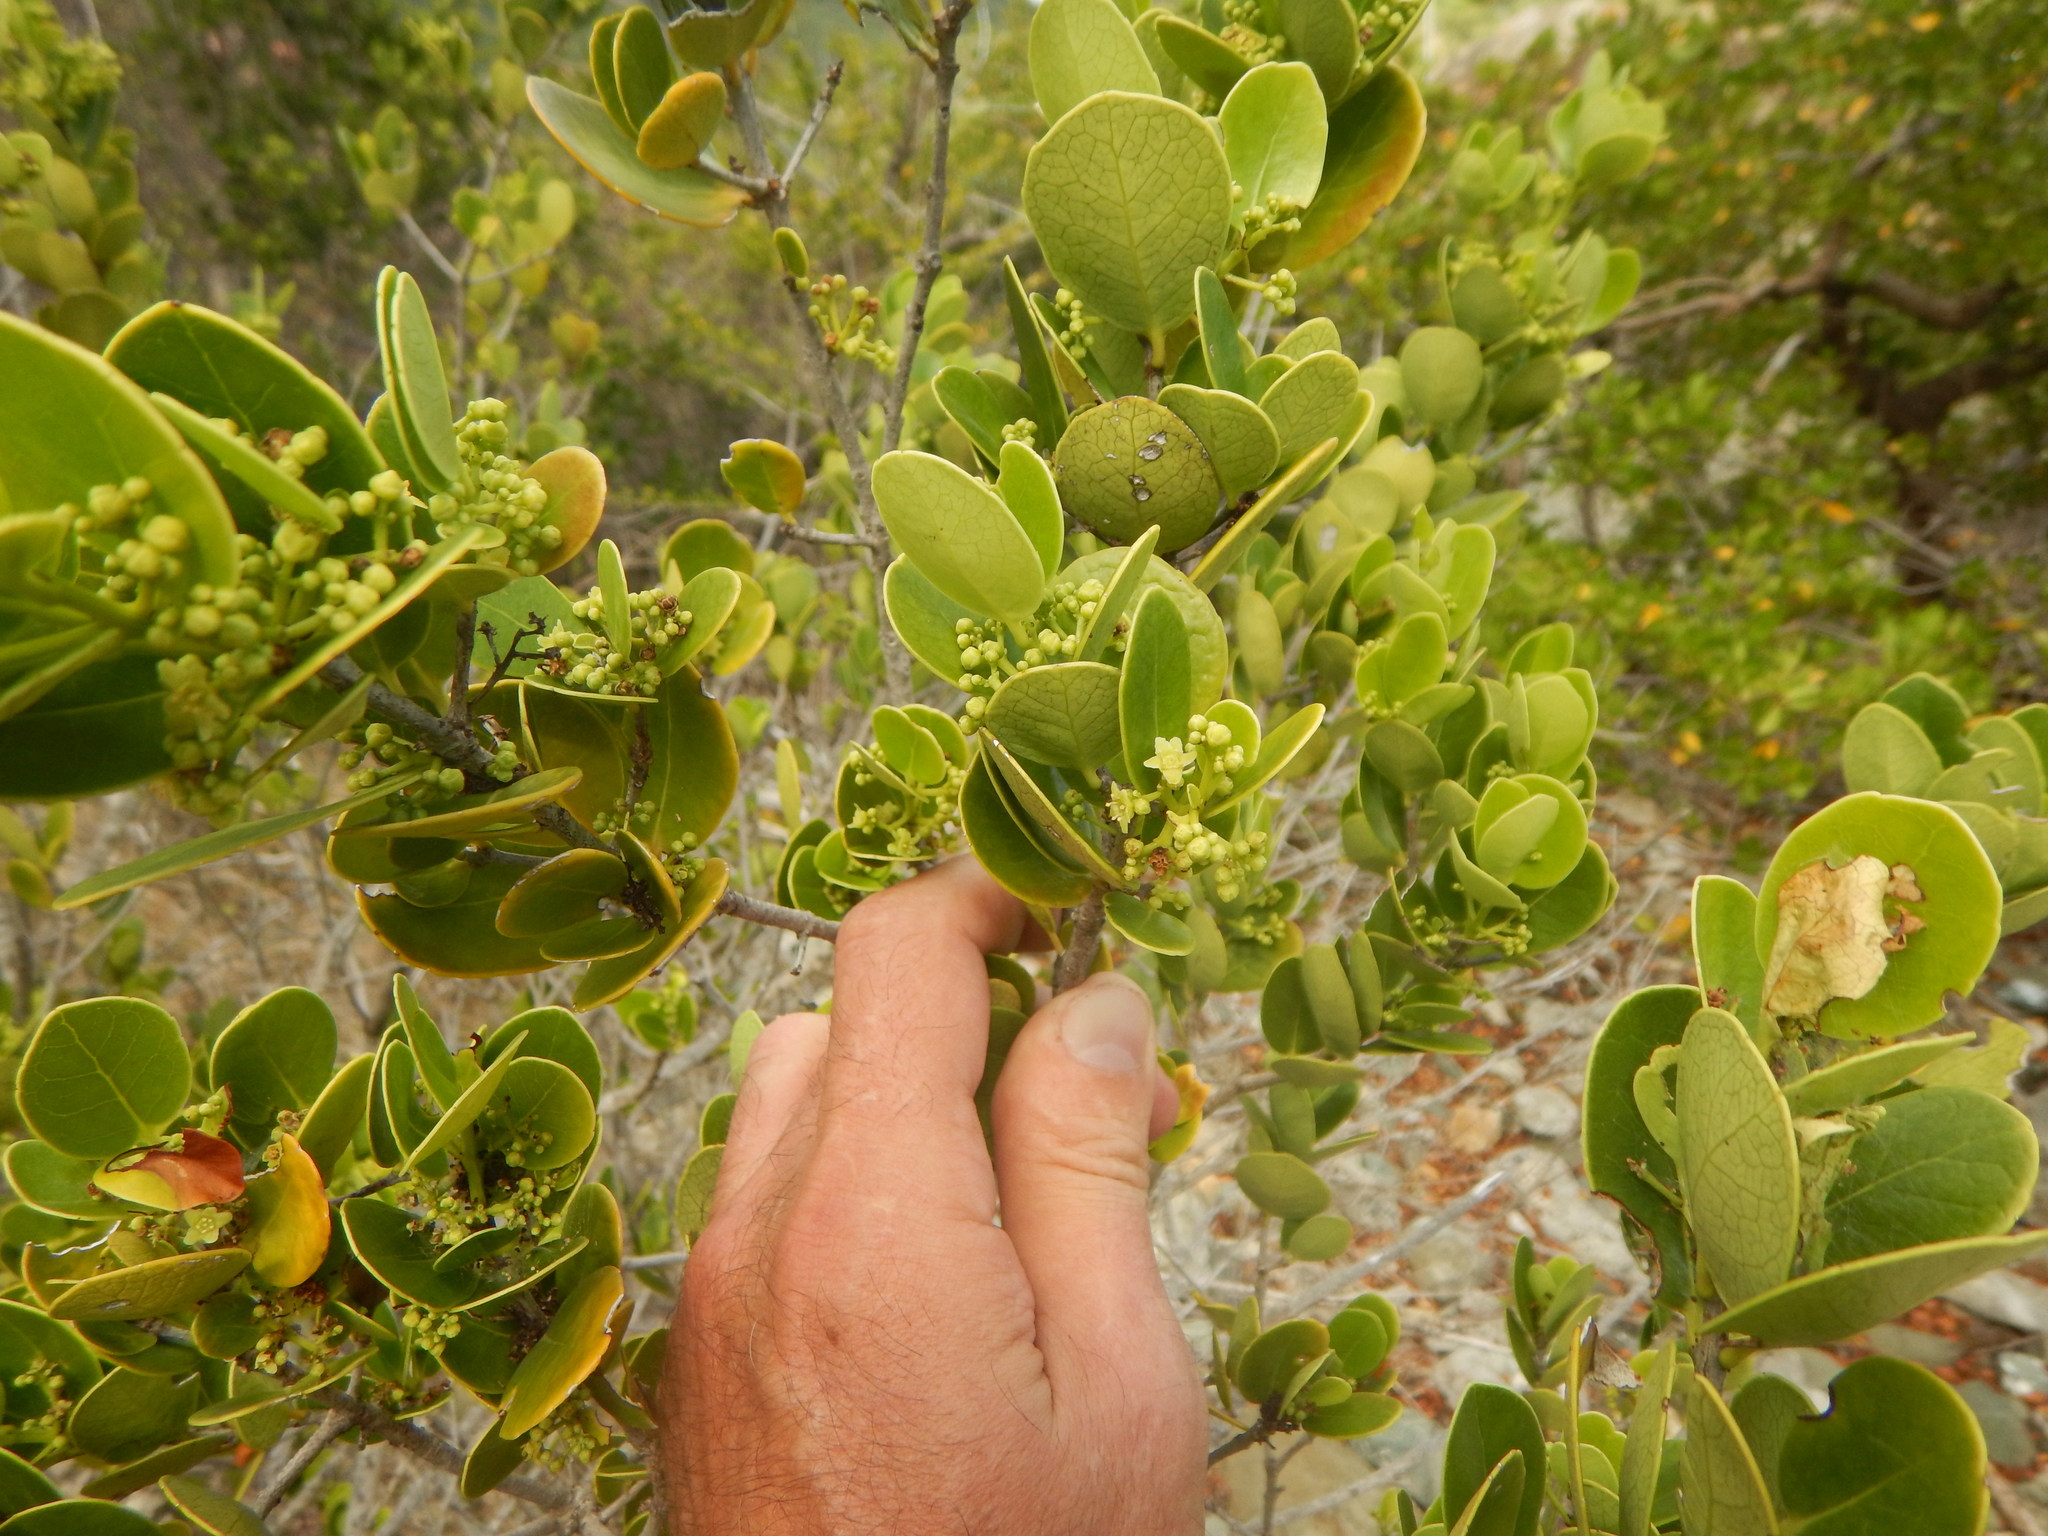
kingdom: Plantae
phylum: Tracheophyta
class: Magnoliopsida
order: Celastrales
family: Celastraceae
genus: Elaeodendron
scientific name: Elaeodendron xylocarpum
